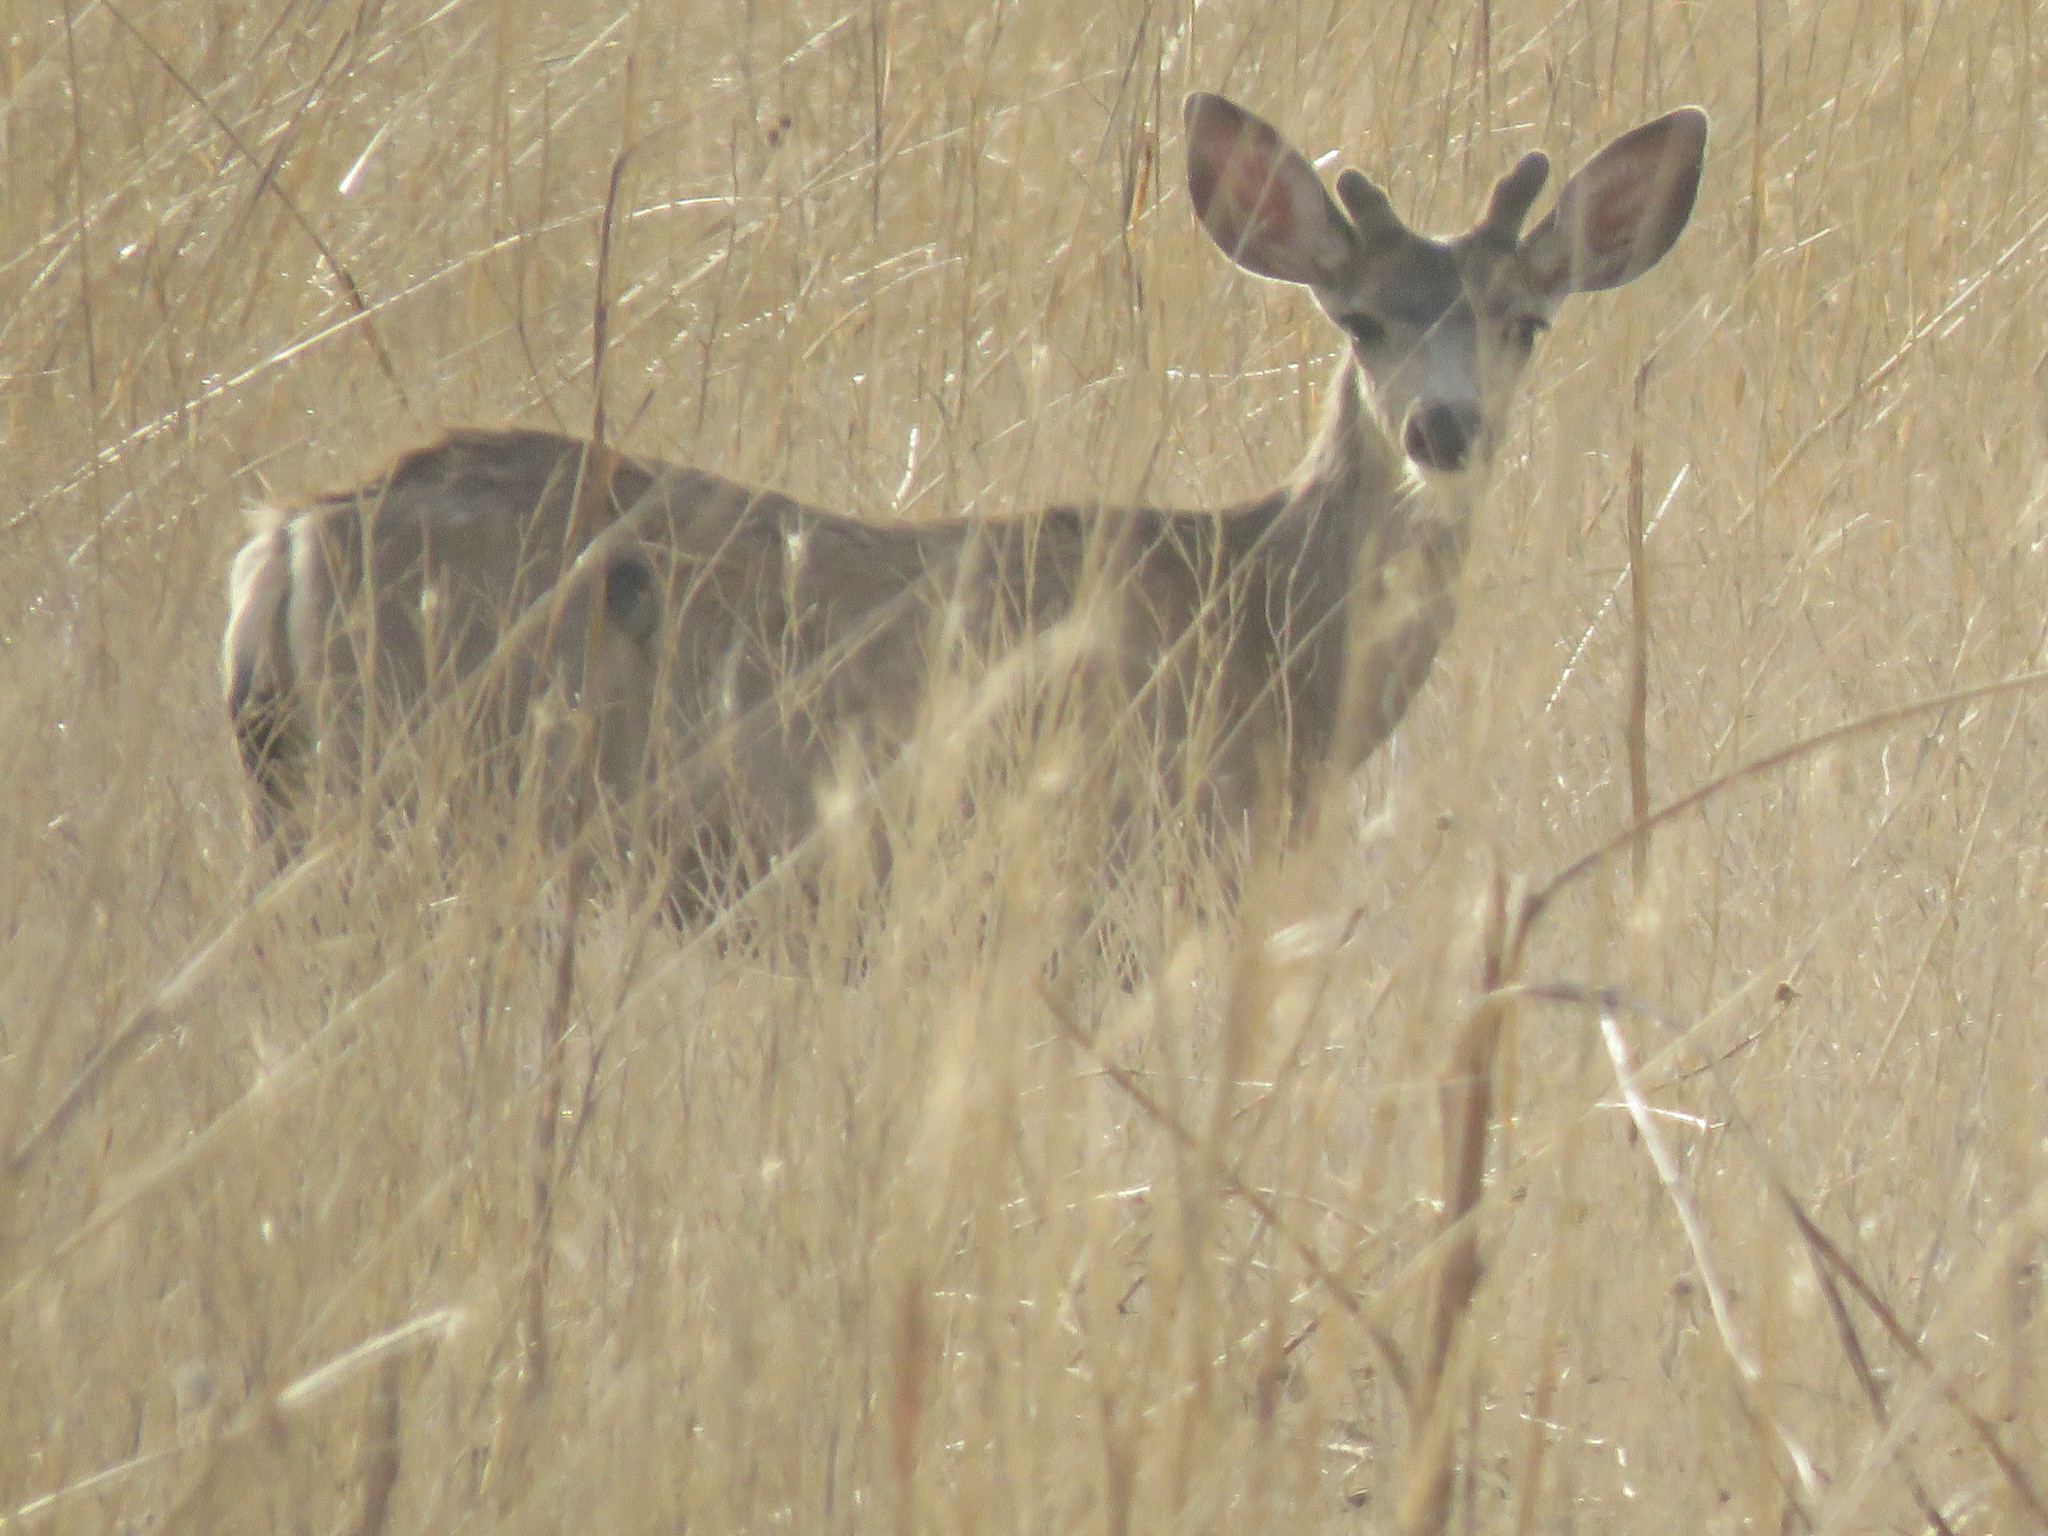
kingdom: Animalia
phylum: Chordata
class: Mammalia
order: Artiodactyla
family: Cervidae
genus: Odocoileus
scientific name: Odocoileus hemionus
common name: Mule deer
